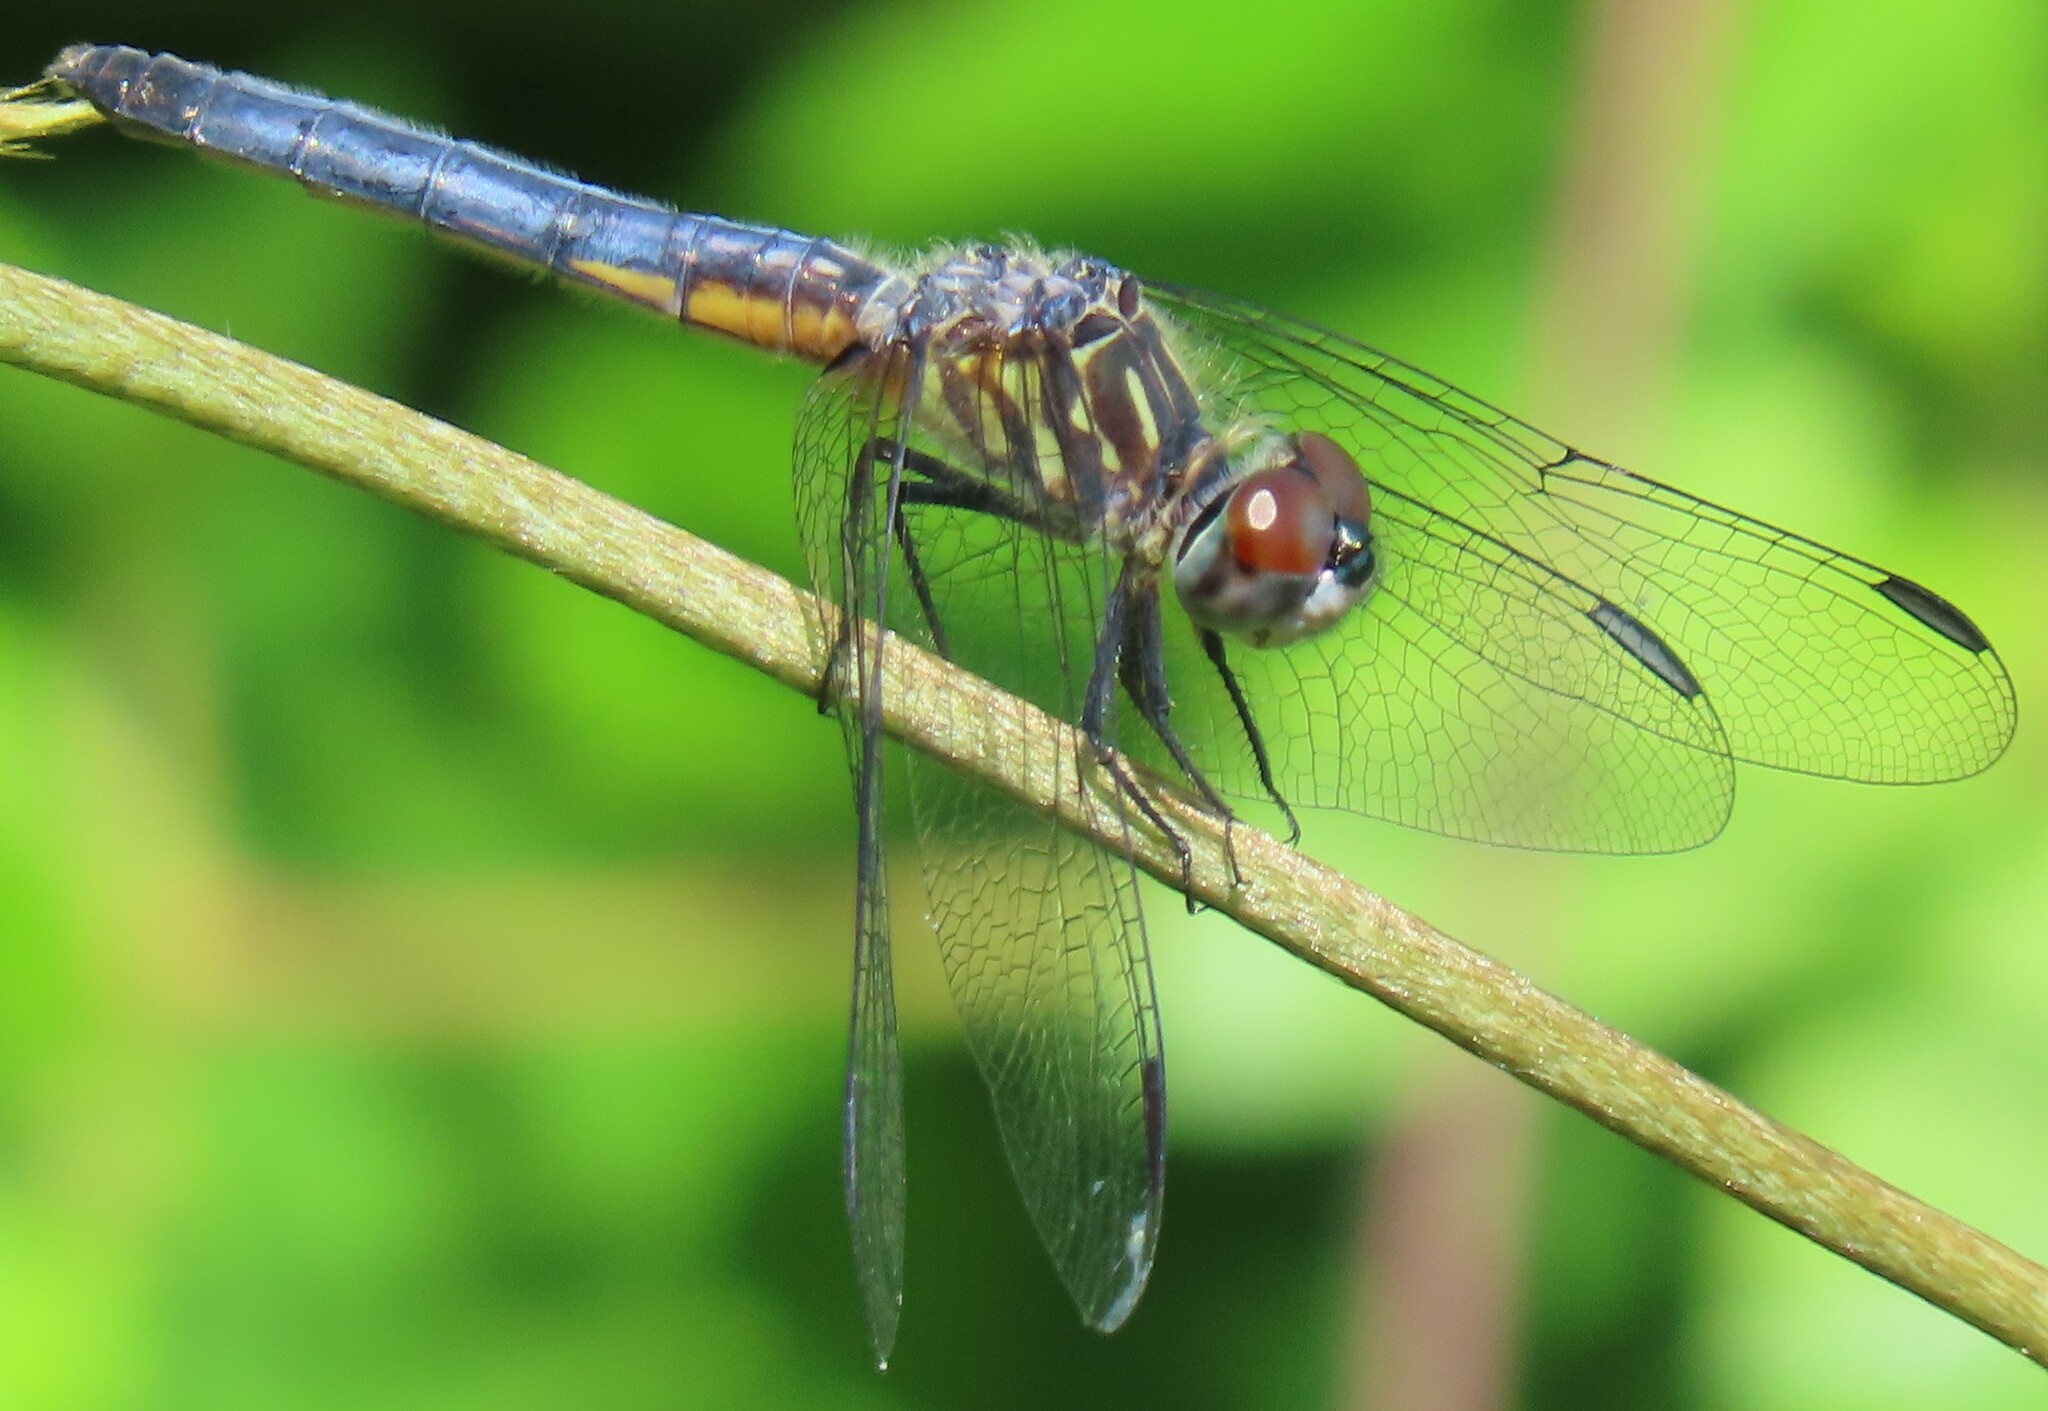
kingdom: Animalia
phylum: Arthropoda
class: Insecta
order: Odonata
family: Libellulidae
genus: Pachydiplax
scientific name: Pachydiplax longipennis
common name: Blue dasher
